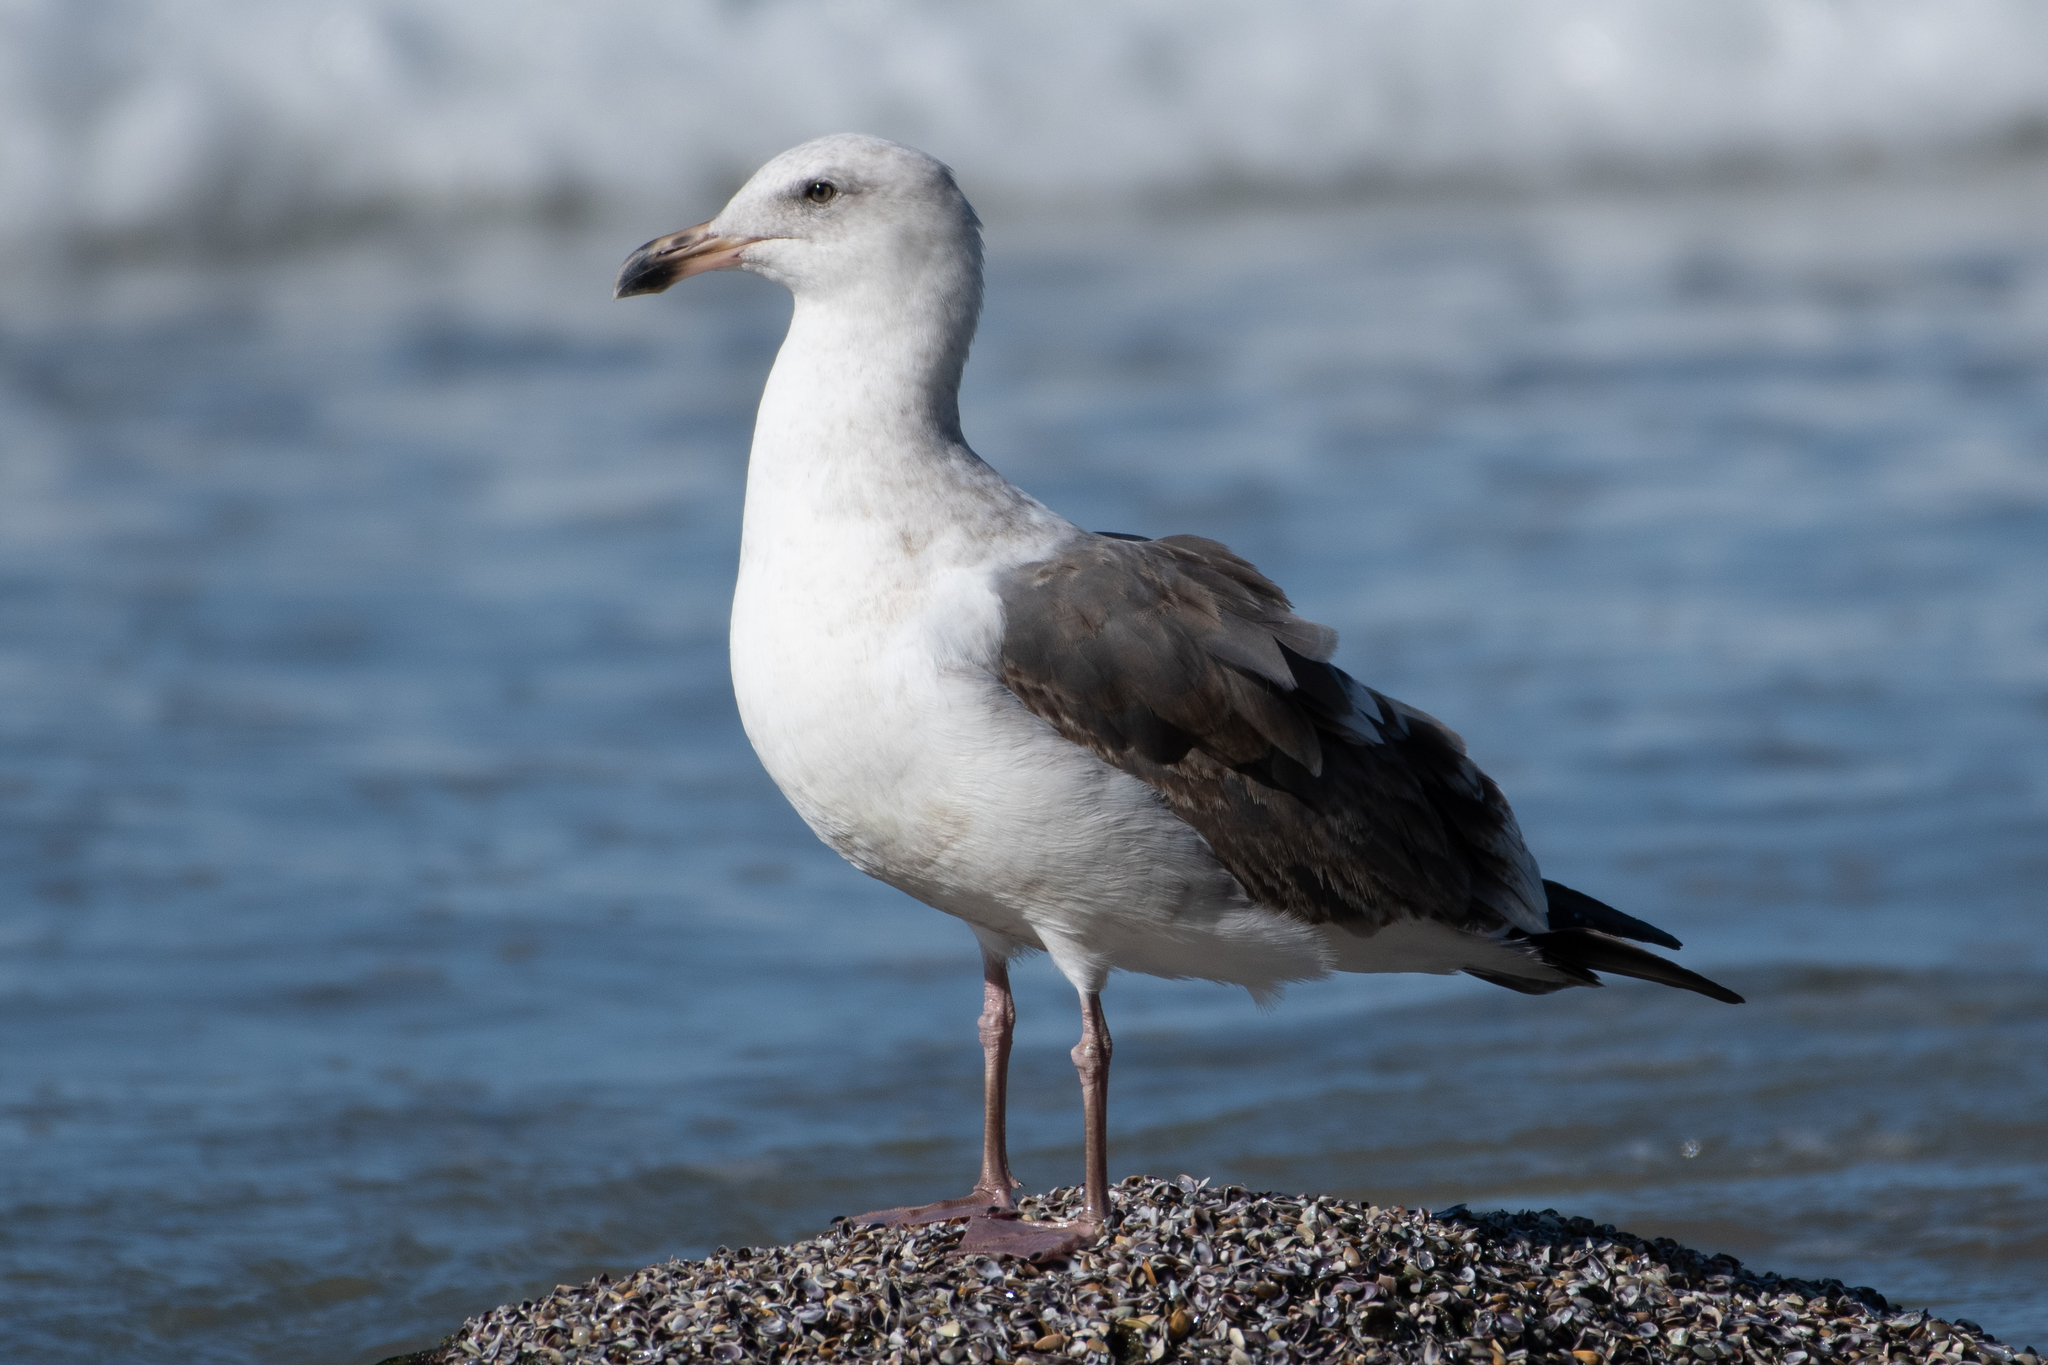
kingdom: Animalia
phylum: Chordata
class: Aves
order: Charadriiformes
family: Laridae
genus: Larus
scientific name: Larus occidentalis
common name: Western gull
